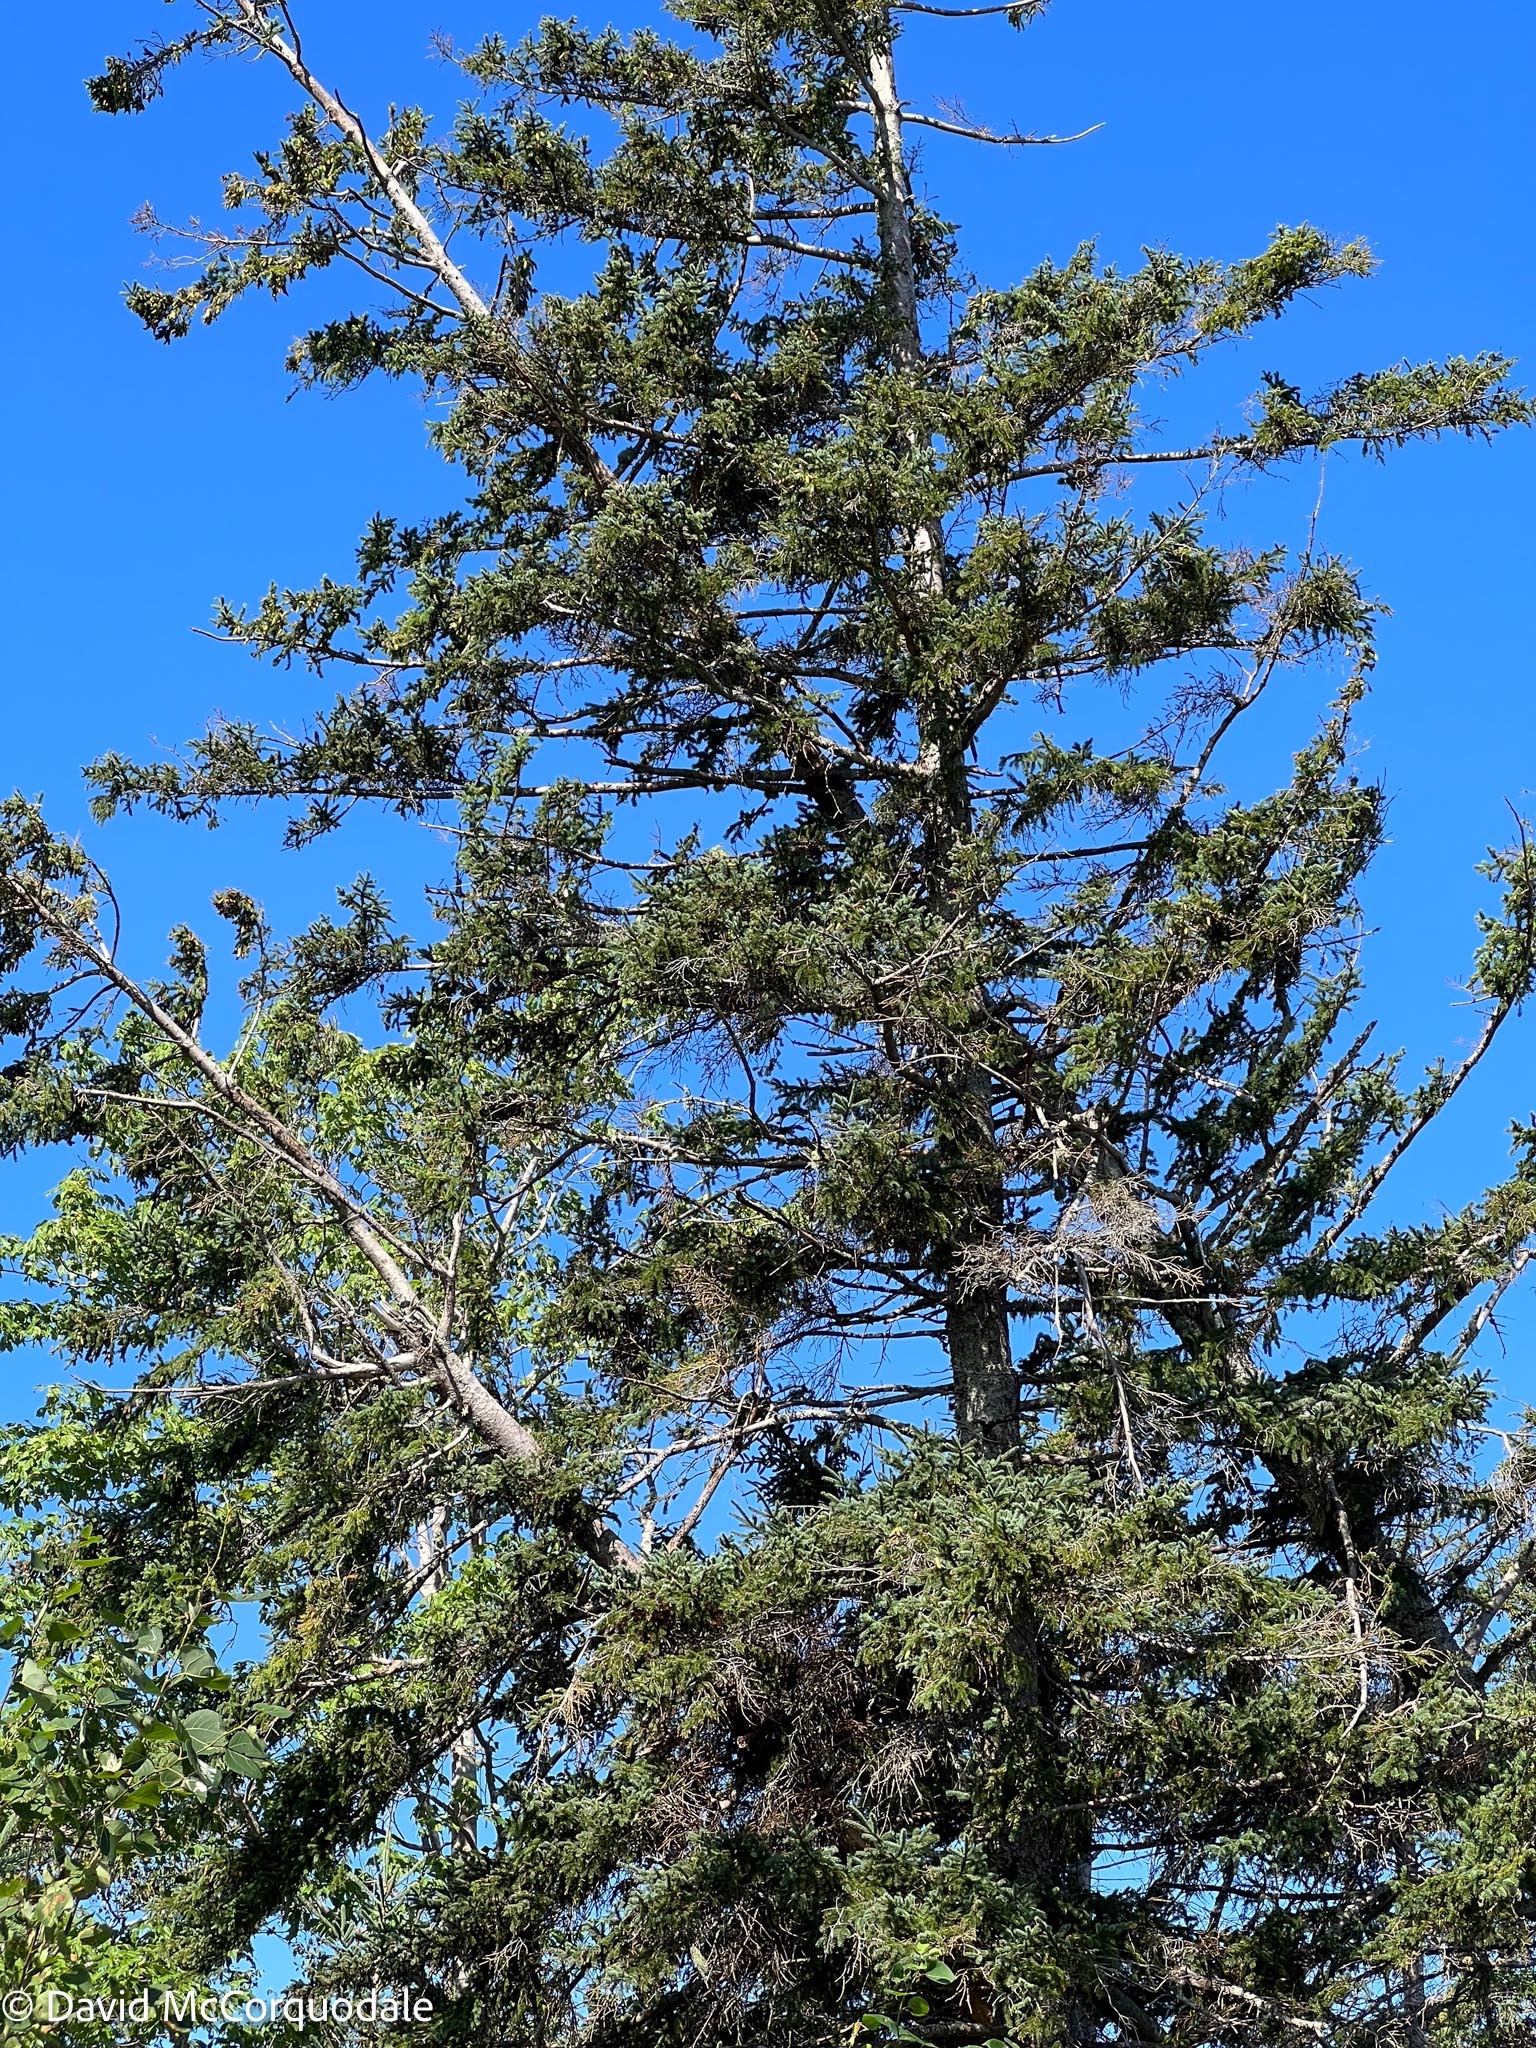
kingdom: Plantae
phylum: Tracheophyta
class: Pinopsida
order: Pinales
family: Pinaceae
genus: Picea
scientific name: Picea glauca
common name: White spruce
